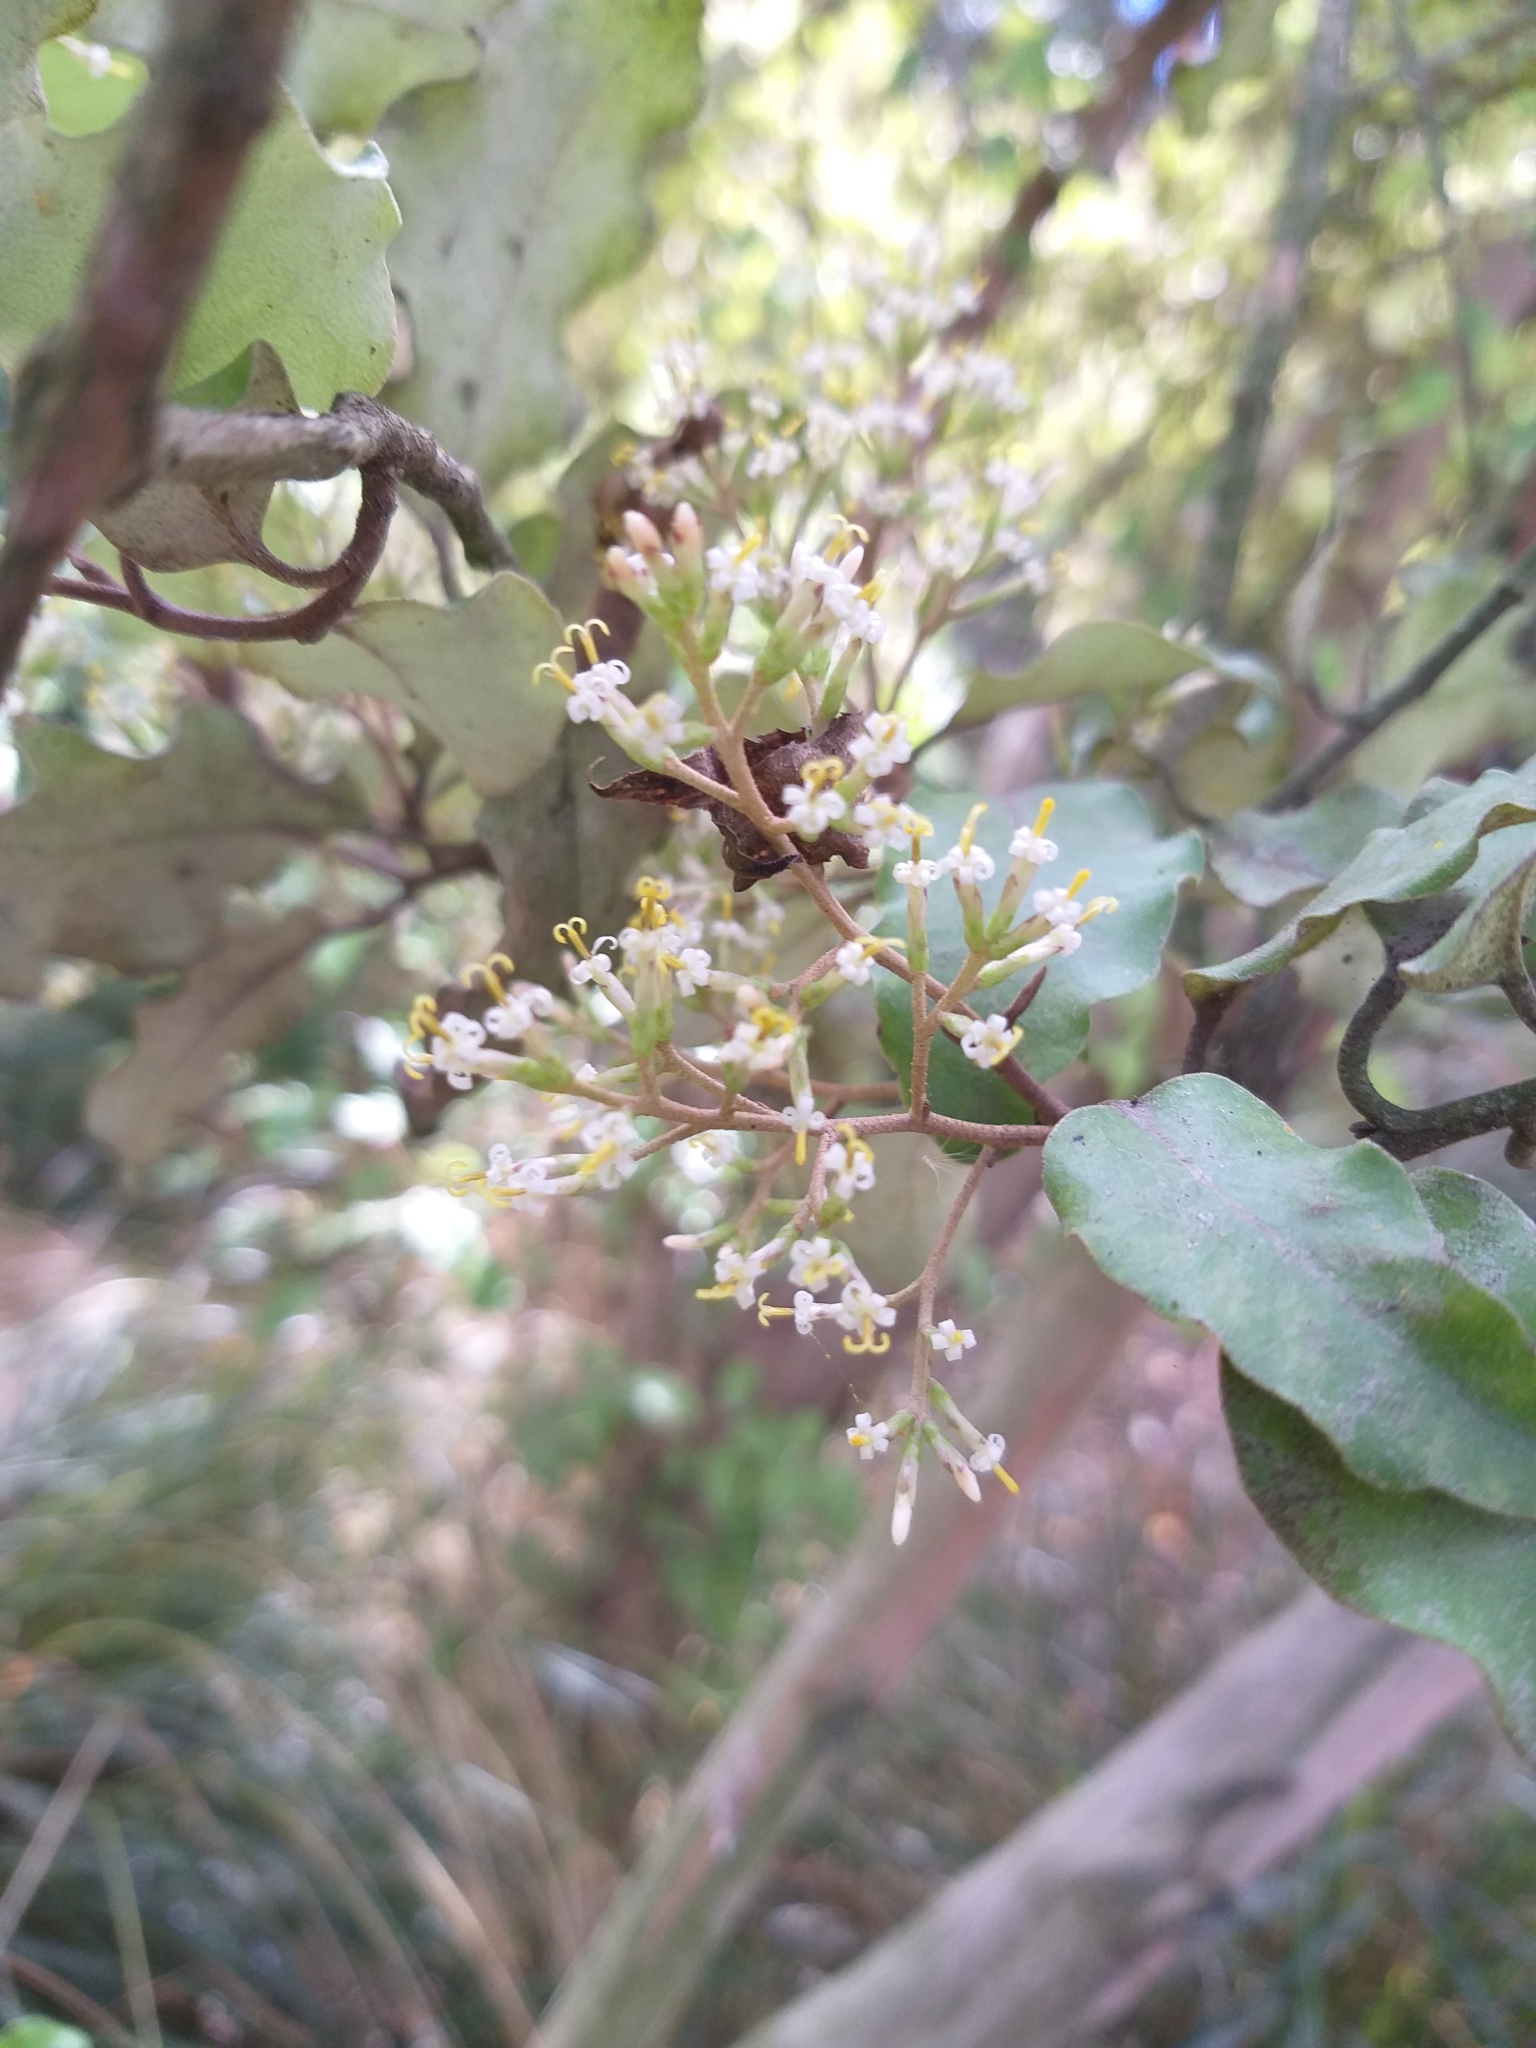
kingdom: Plantae
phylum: Tracheophyta
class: Magnoliopsida
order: Asterales
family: Asteraceae
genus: Olearia
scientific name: Olearia paniculata
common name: Akiraho
